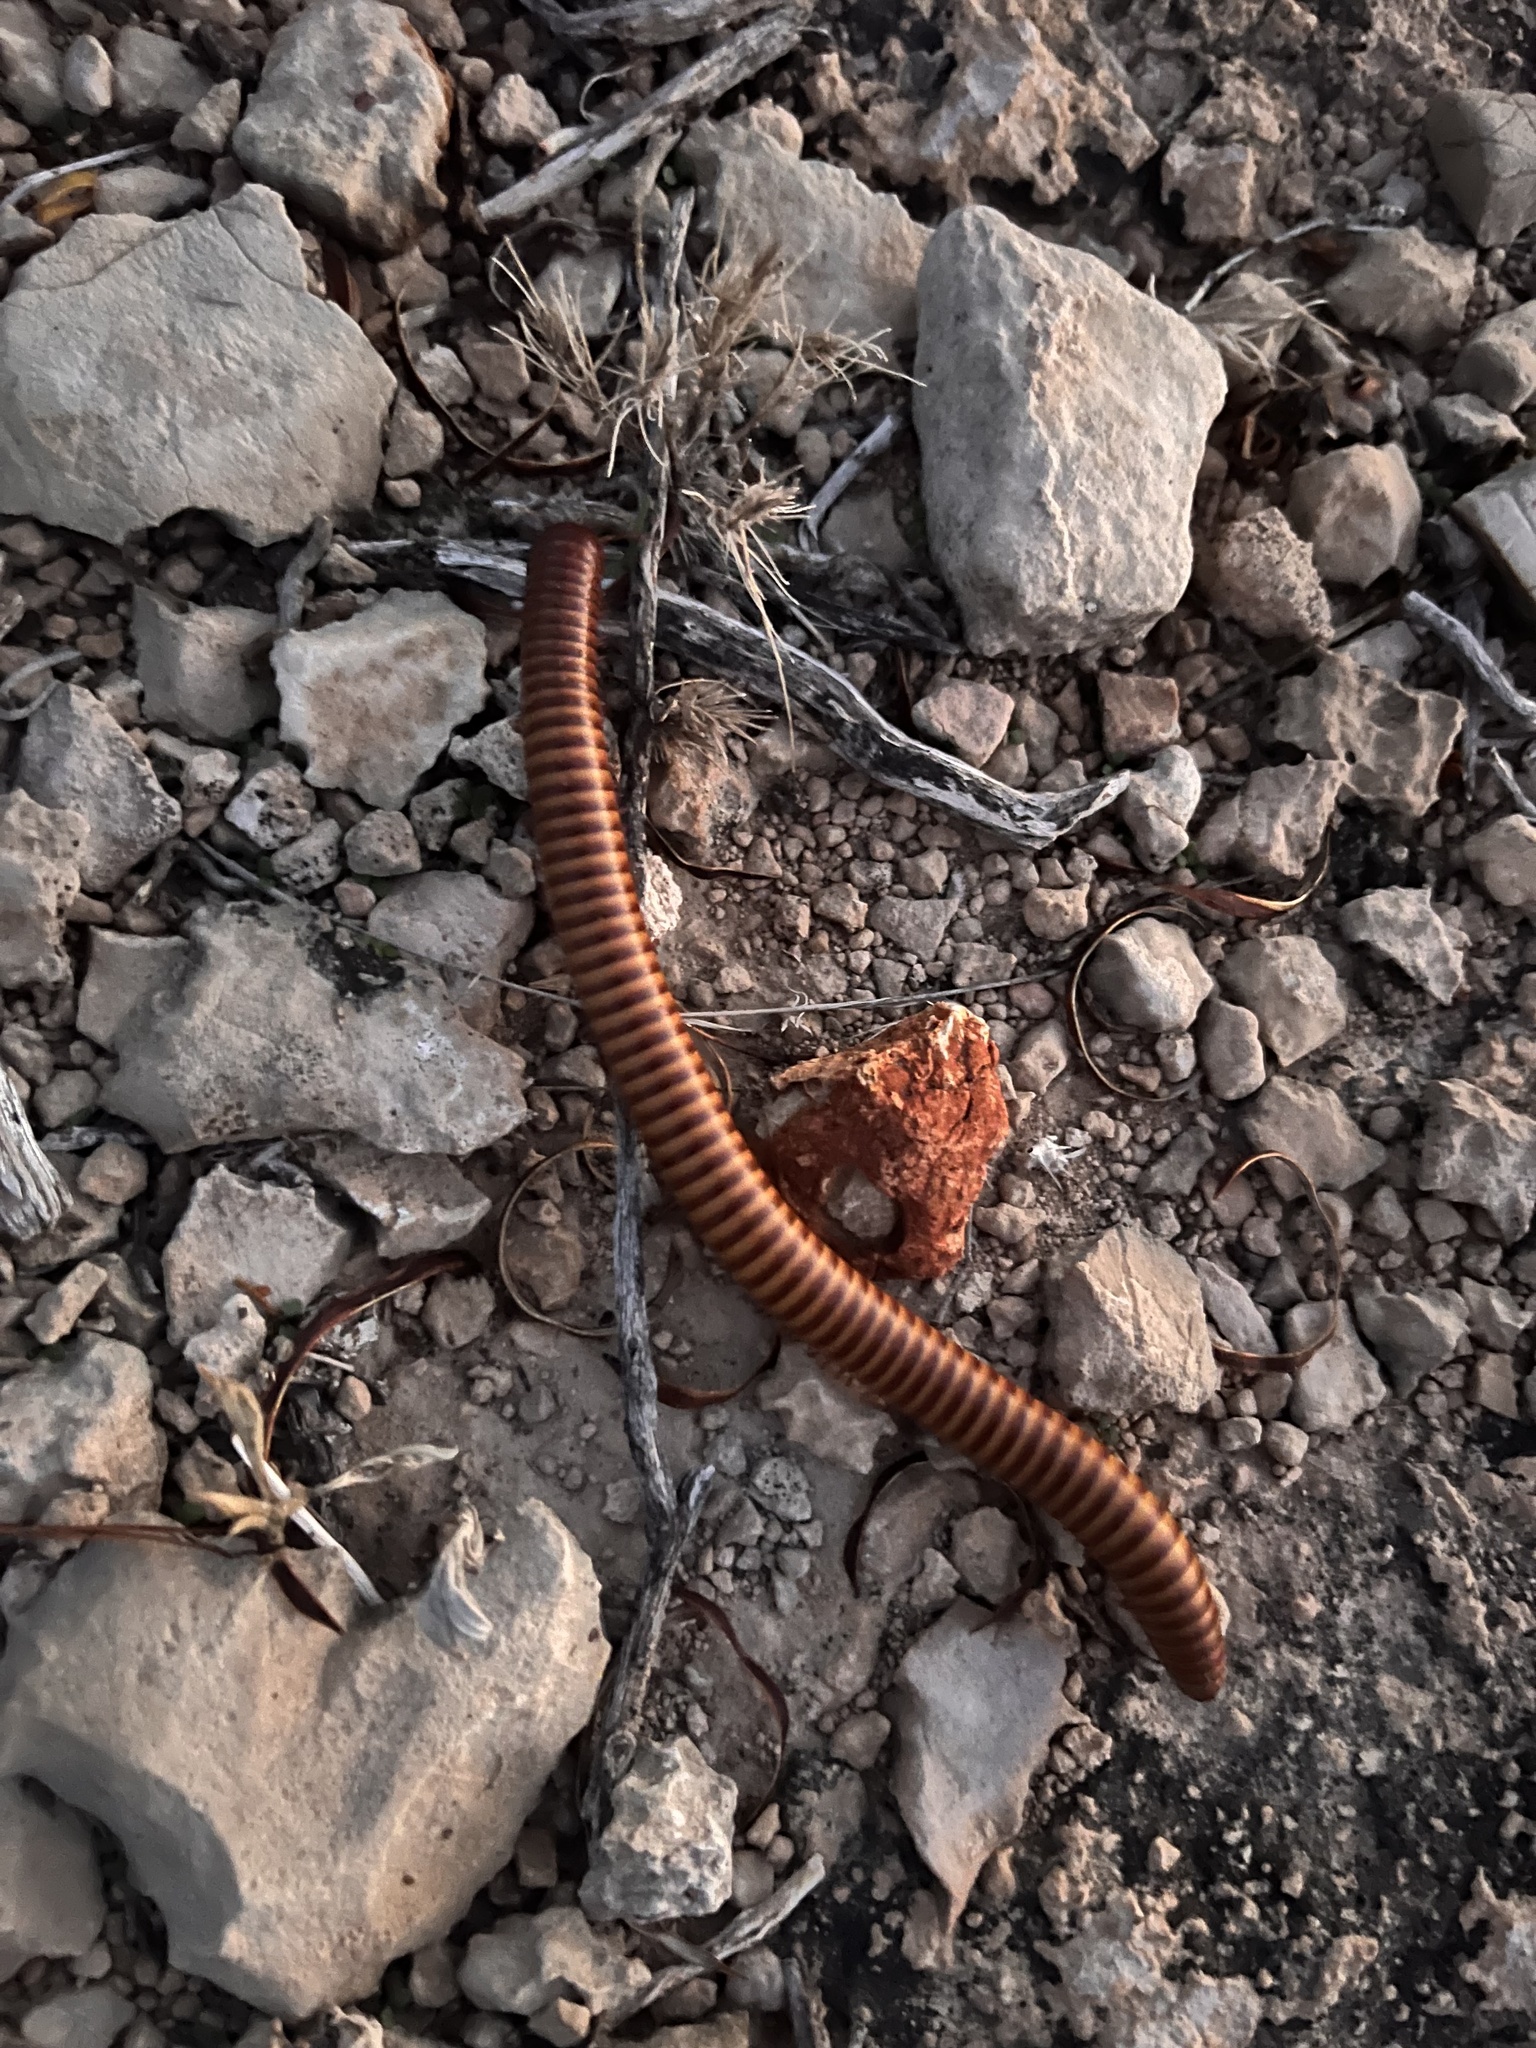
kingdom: Animalia
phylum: Arthropoda
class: Diplopoda
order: Spirostreptida
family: Spirostreptidae
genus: Orthoporus
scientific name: Orthoporus ornatus
